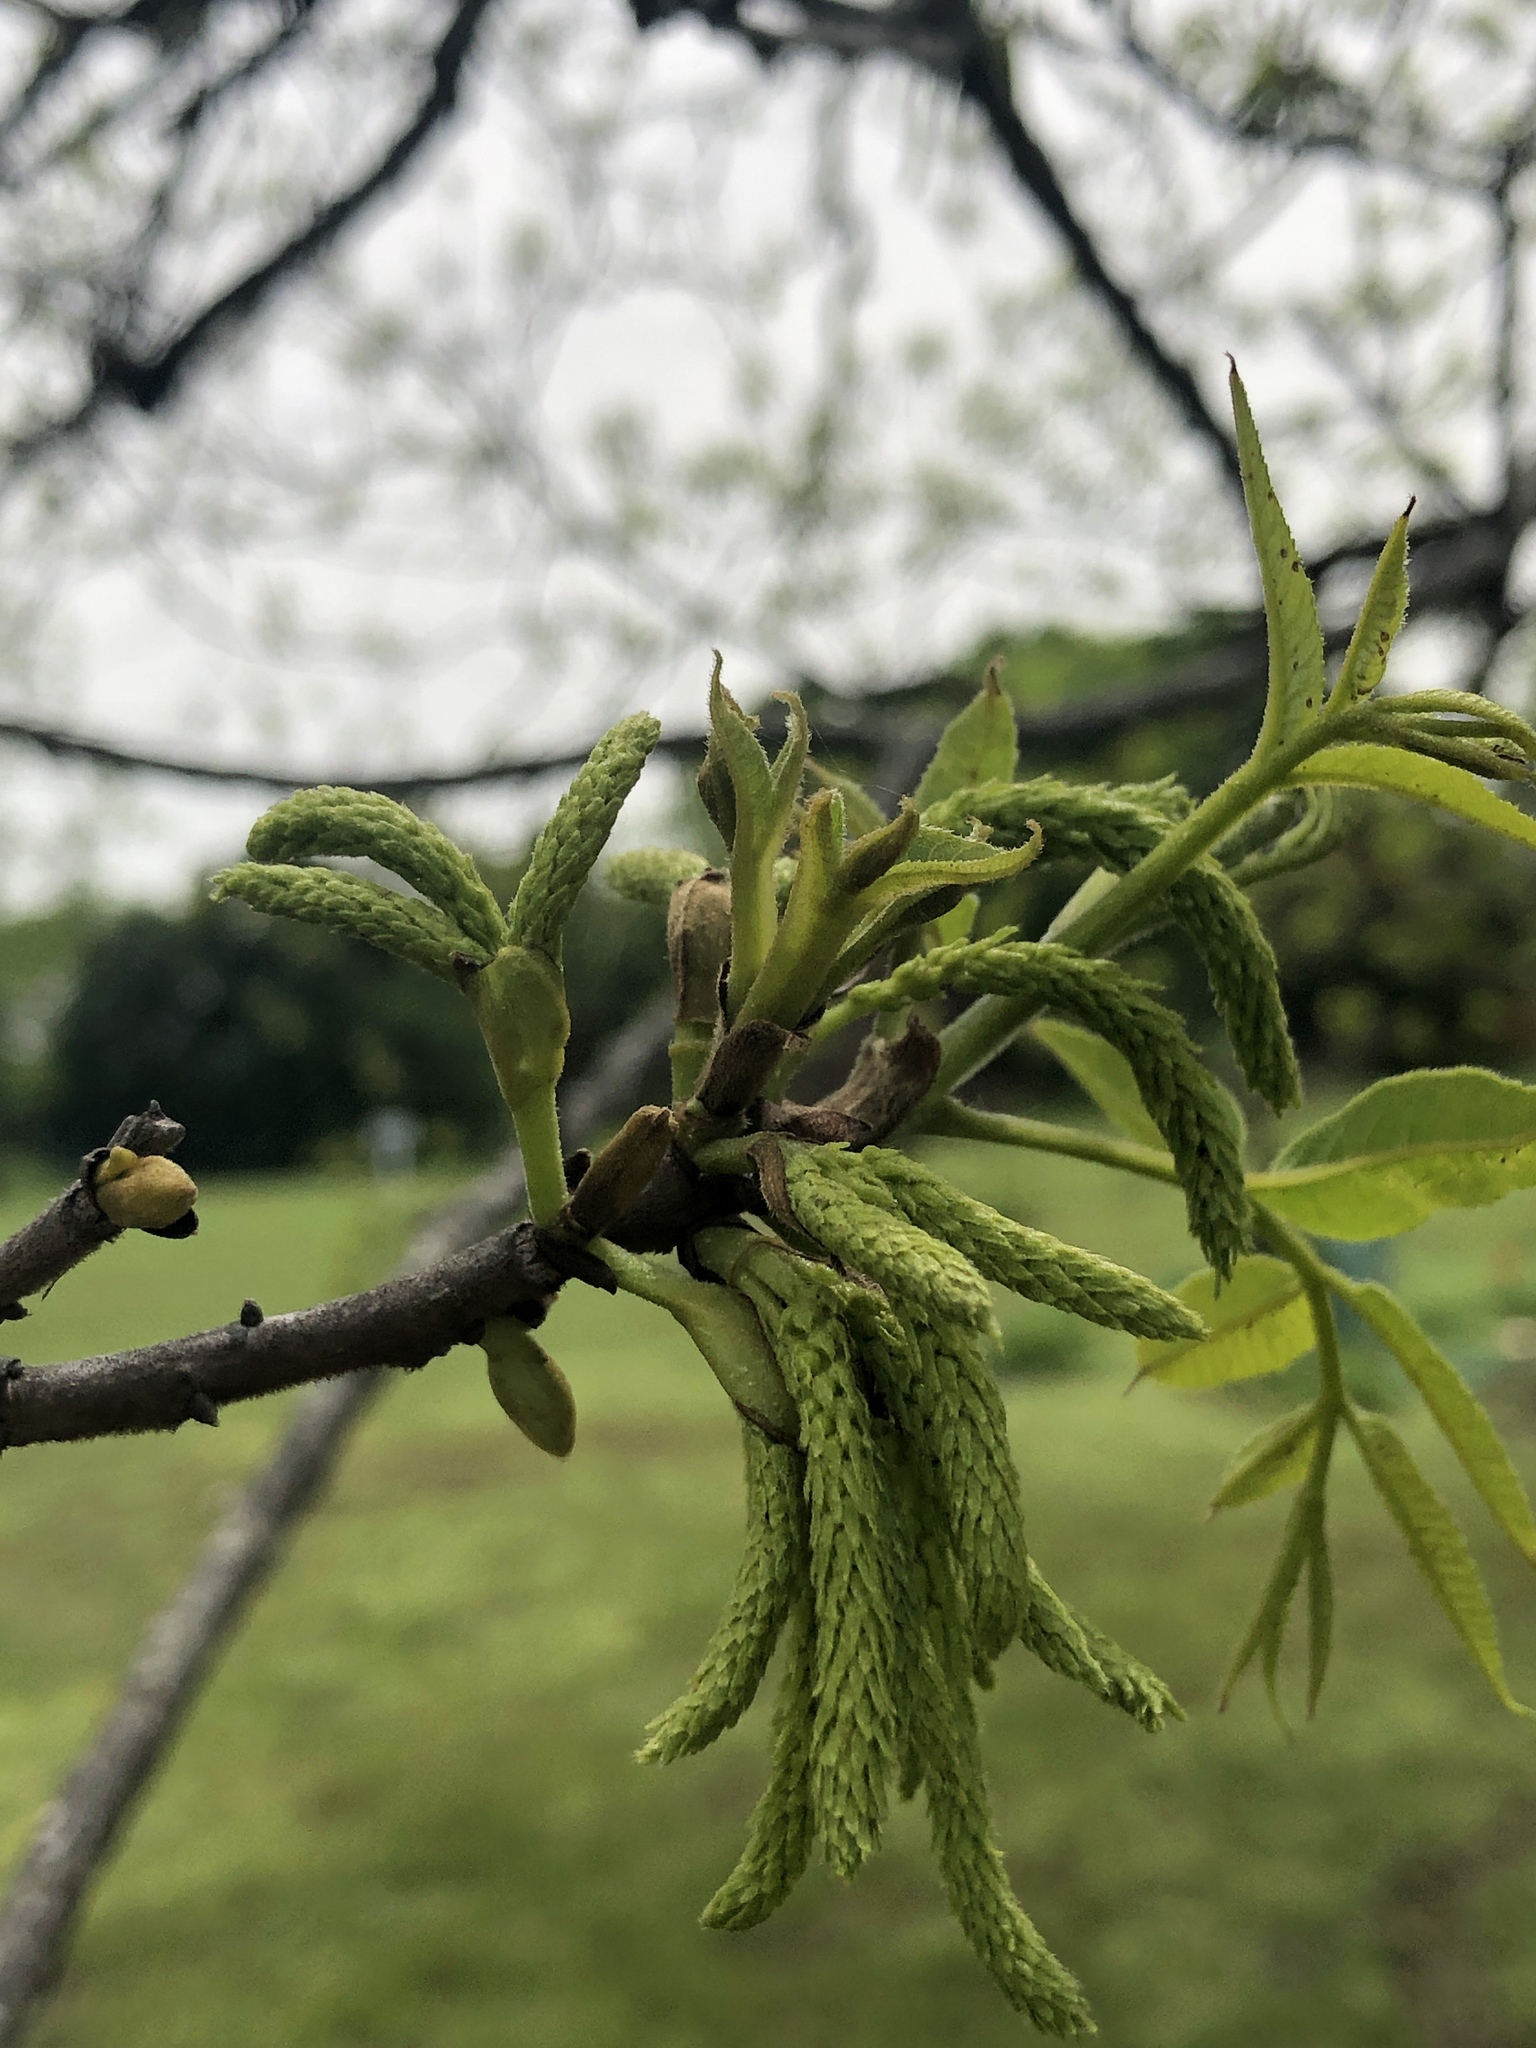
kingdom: Plantae
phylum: Tracheophyta
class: Magnoliopsida
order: Fagales
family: Juglandaceae
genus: Carya
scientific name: Carya illinoinensis
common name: Pecan
